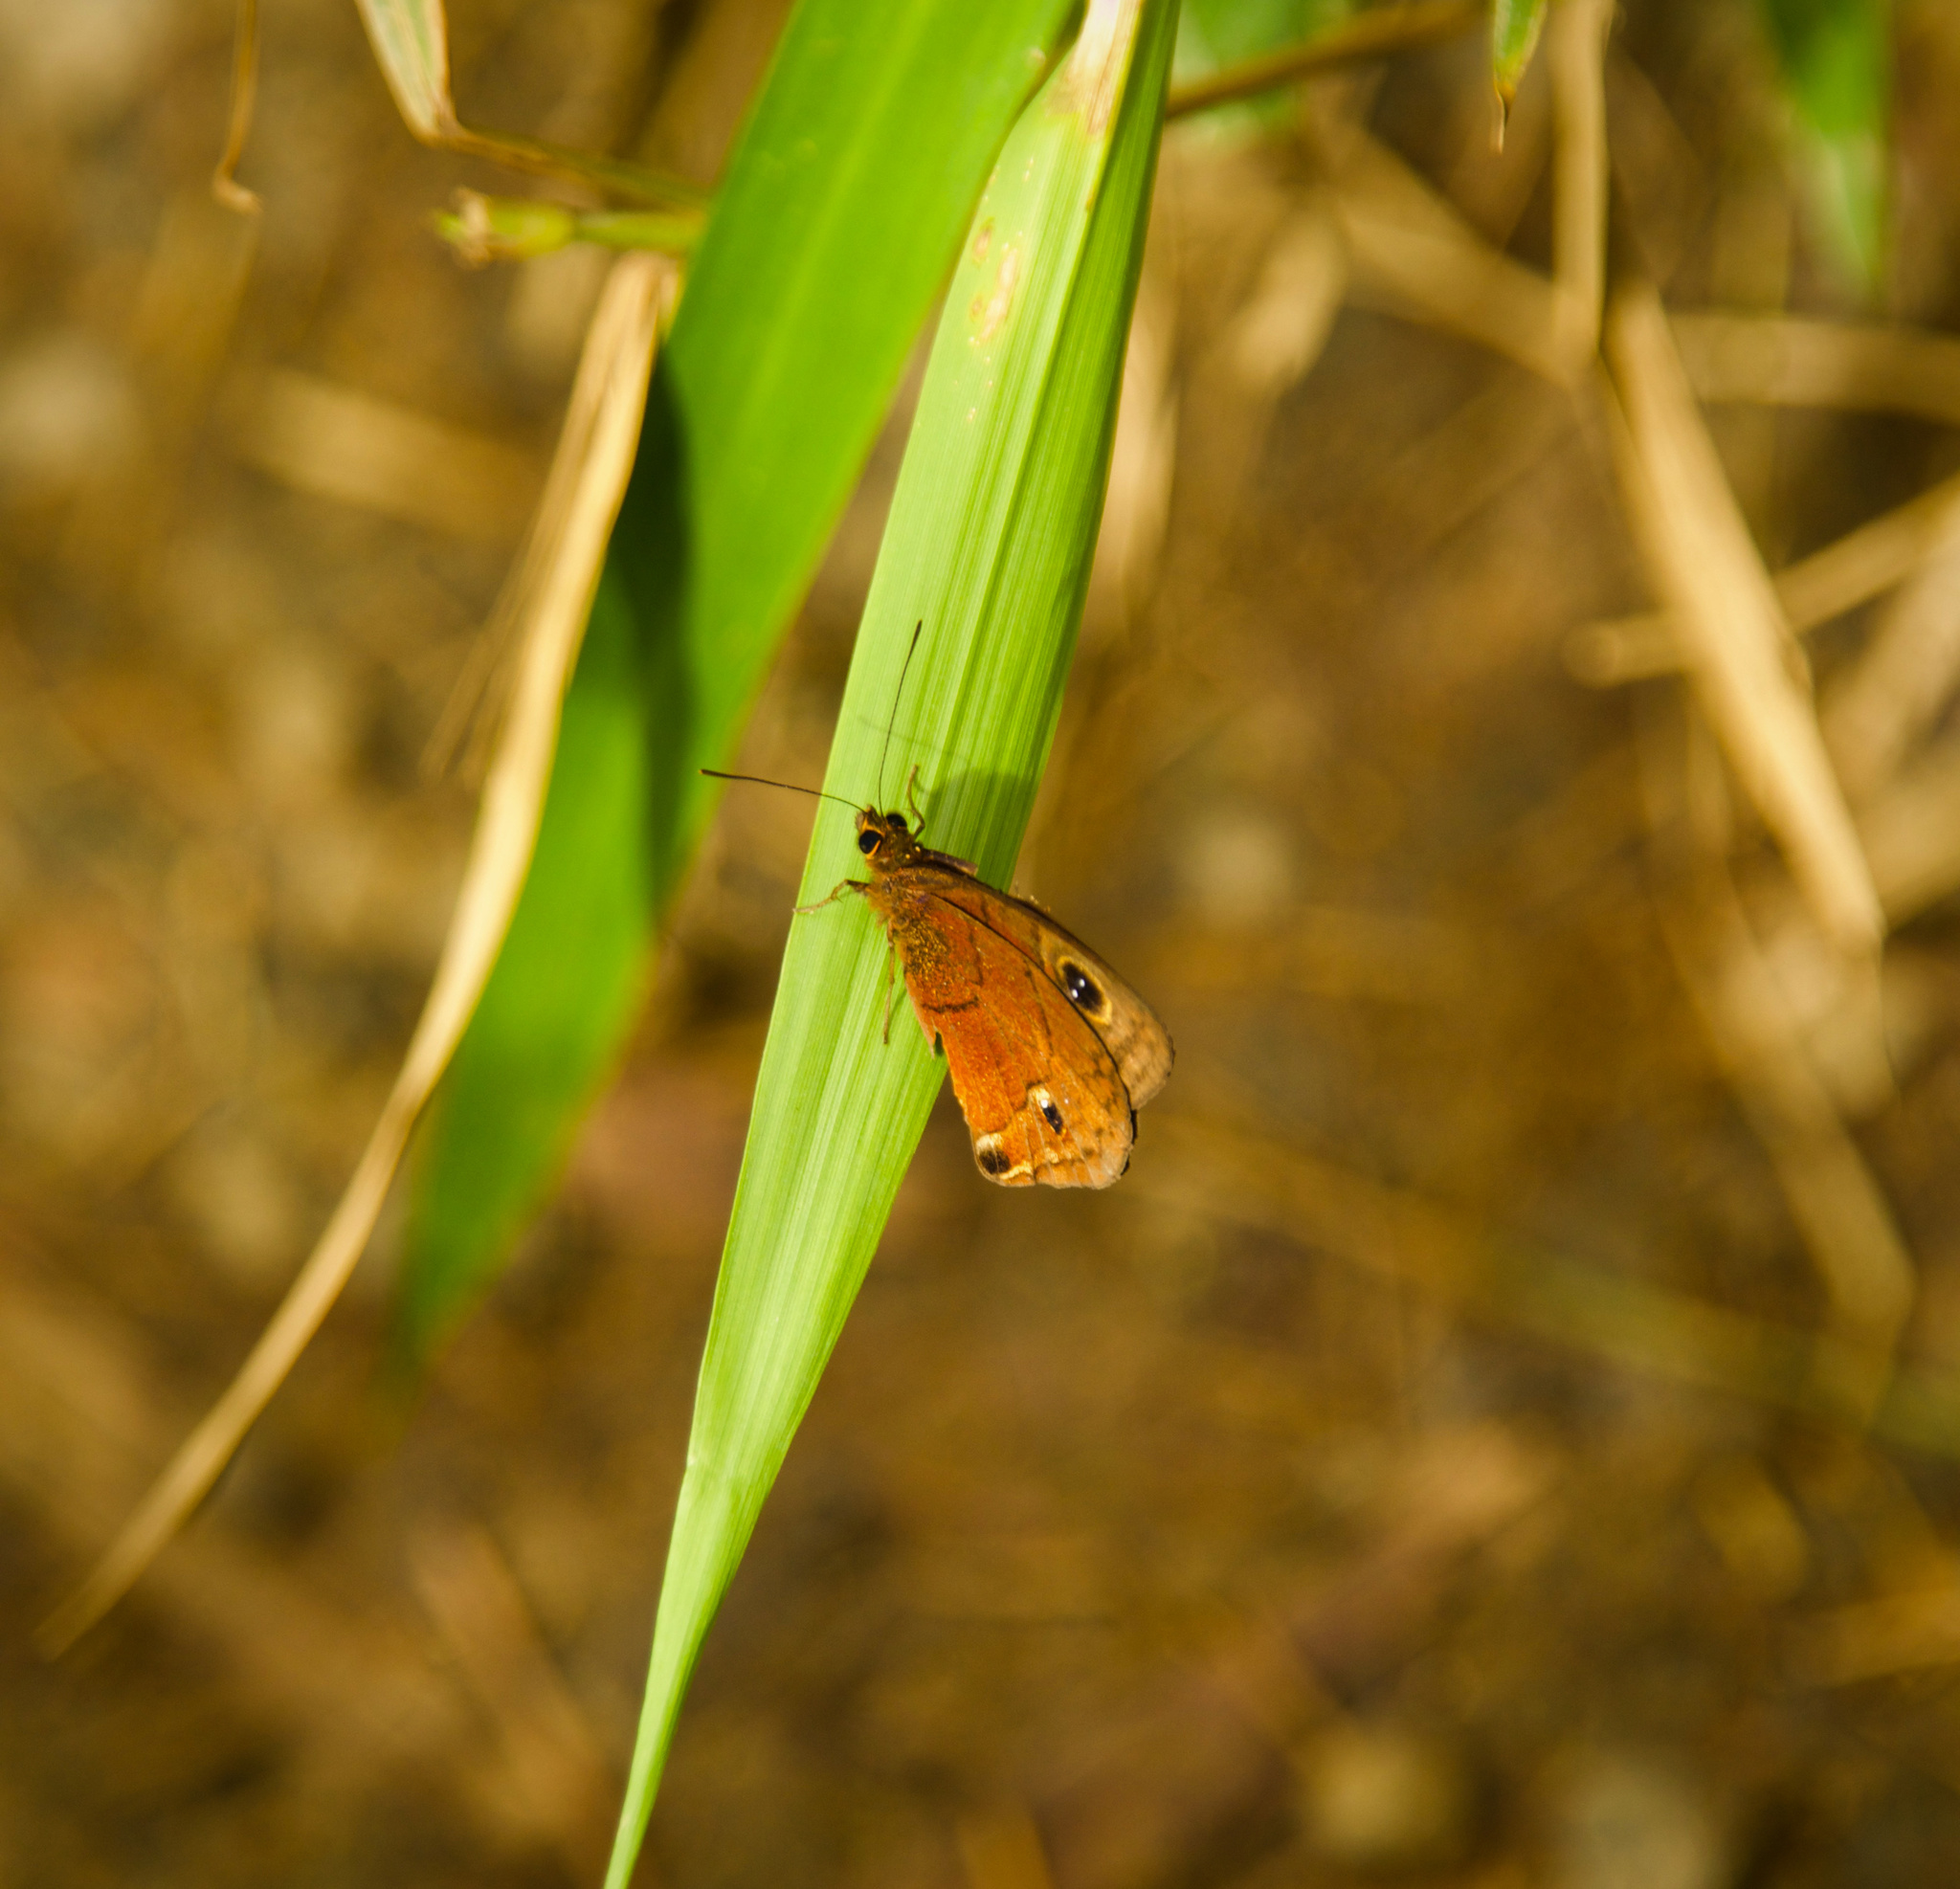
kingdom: Animalia
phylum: Arthropoda
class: Insecta
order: Lepidoptera
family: Nymphalidae
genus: Calisto
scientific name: Calisto nubila
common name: Puerto rican calisto
